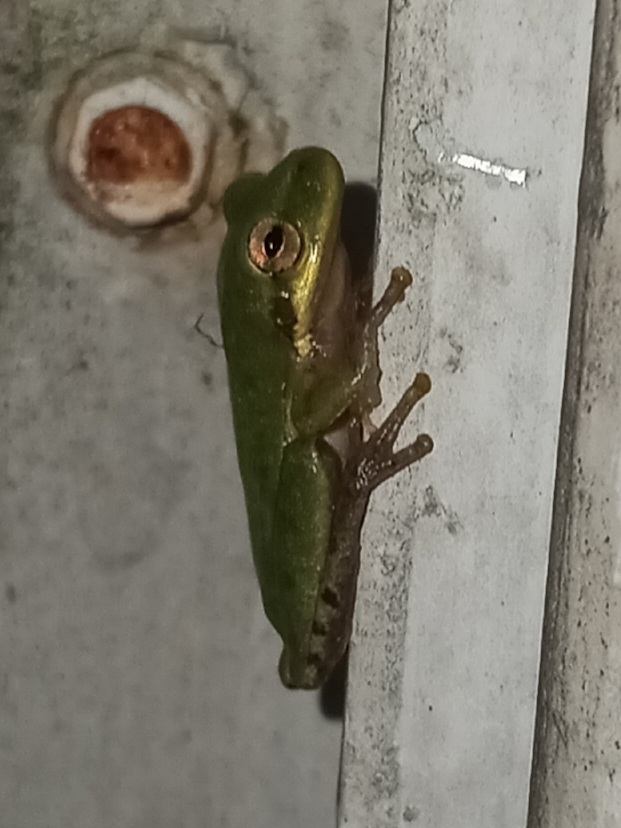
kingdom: Animalia
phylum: Chordata
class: Amphibia
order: Anura
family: Hylidae
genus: Dryophytes
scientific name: Dryophytes squirellus
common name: Squirrel treefrog
